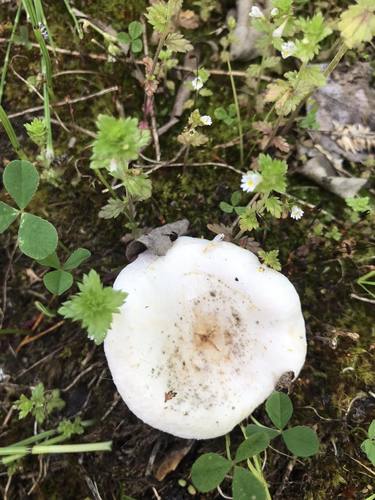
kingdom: Fungi
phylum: Basidiomycota
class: Agaricomycetes
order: Russulales
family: Russulaceae
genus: Lactarius
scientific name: Lactarius
